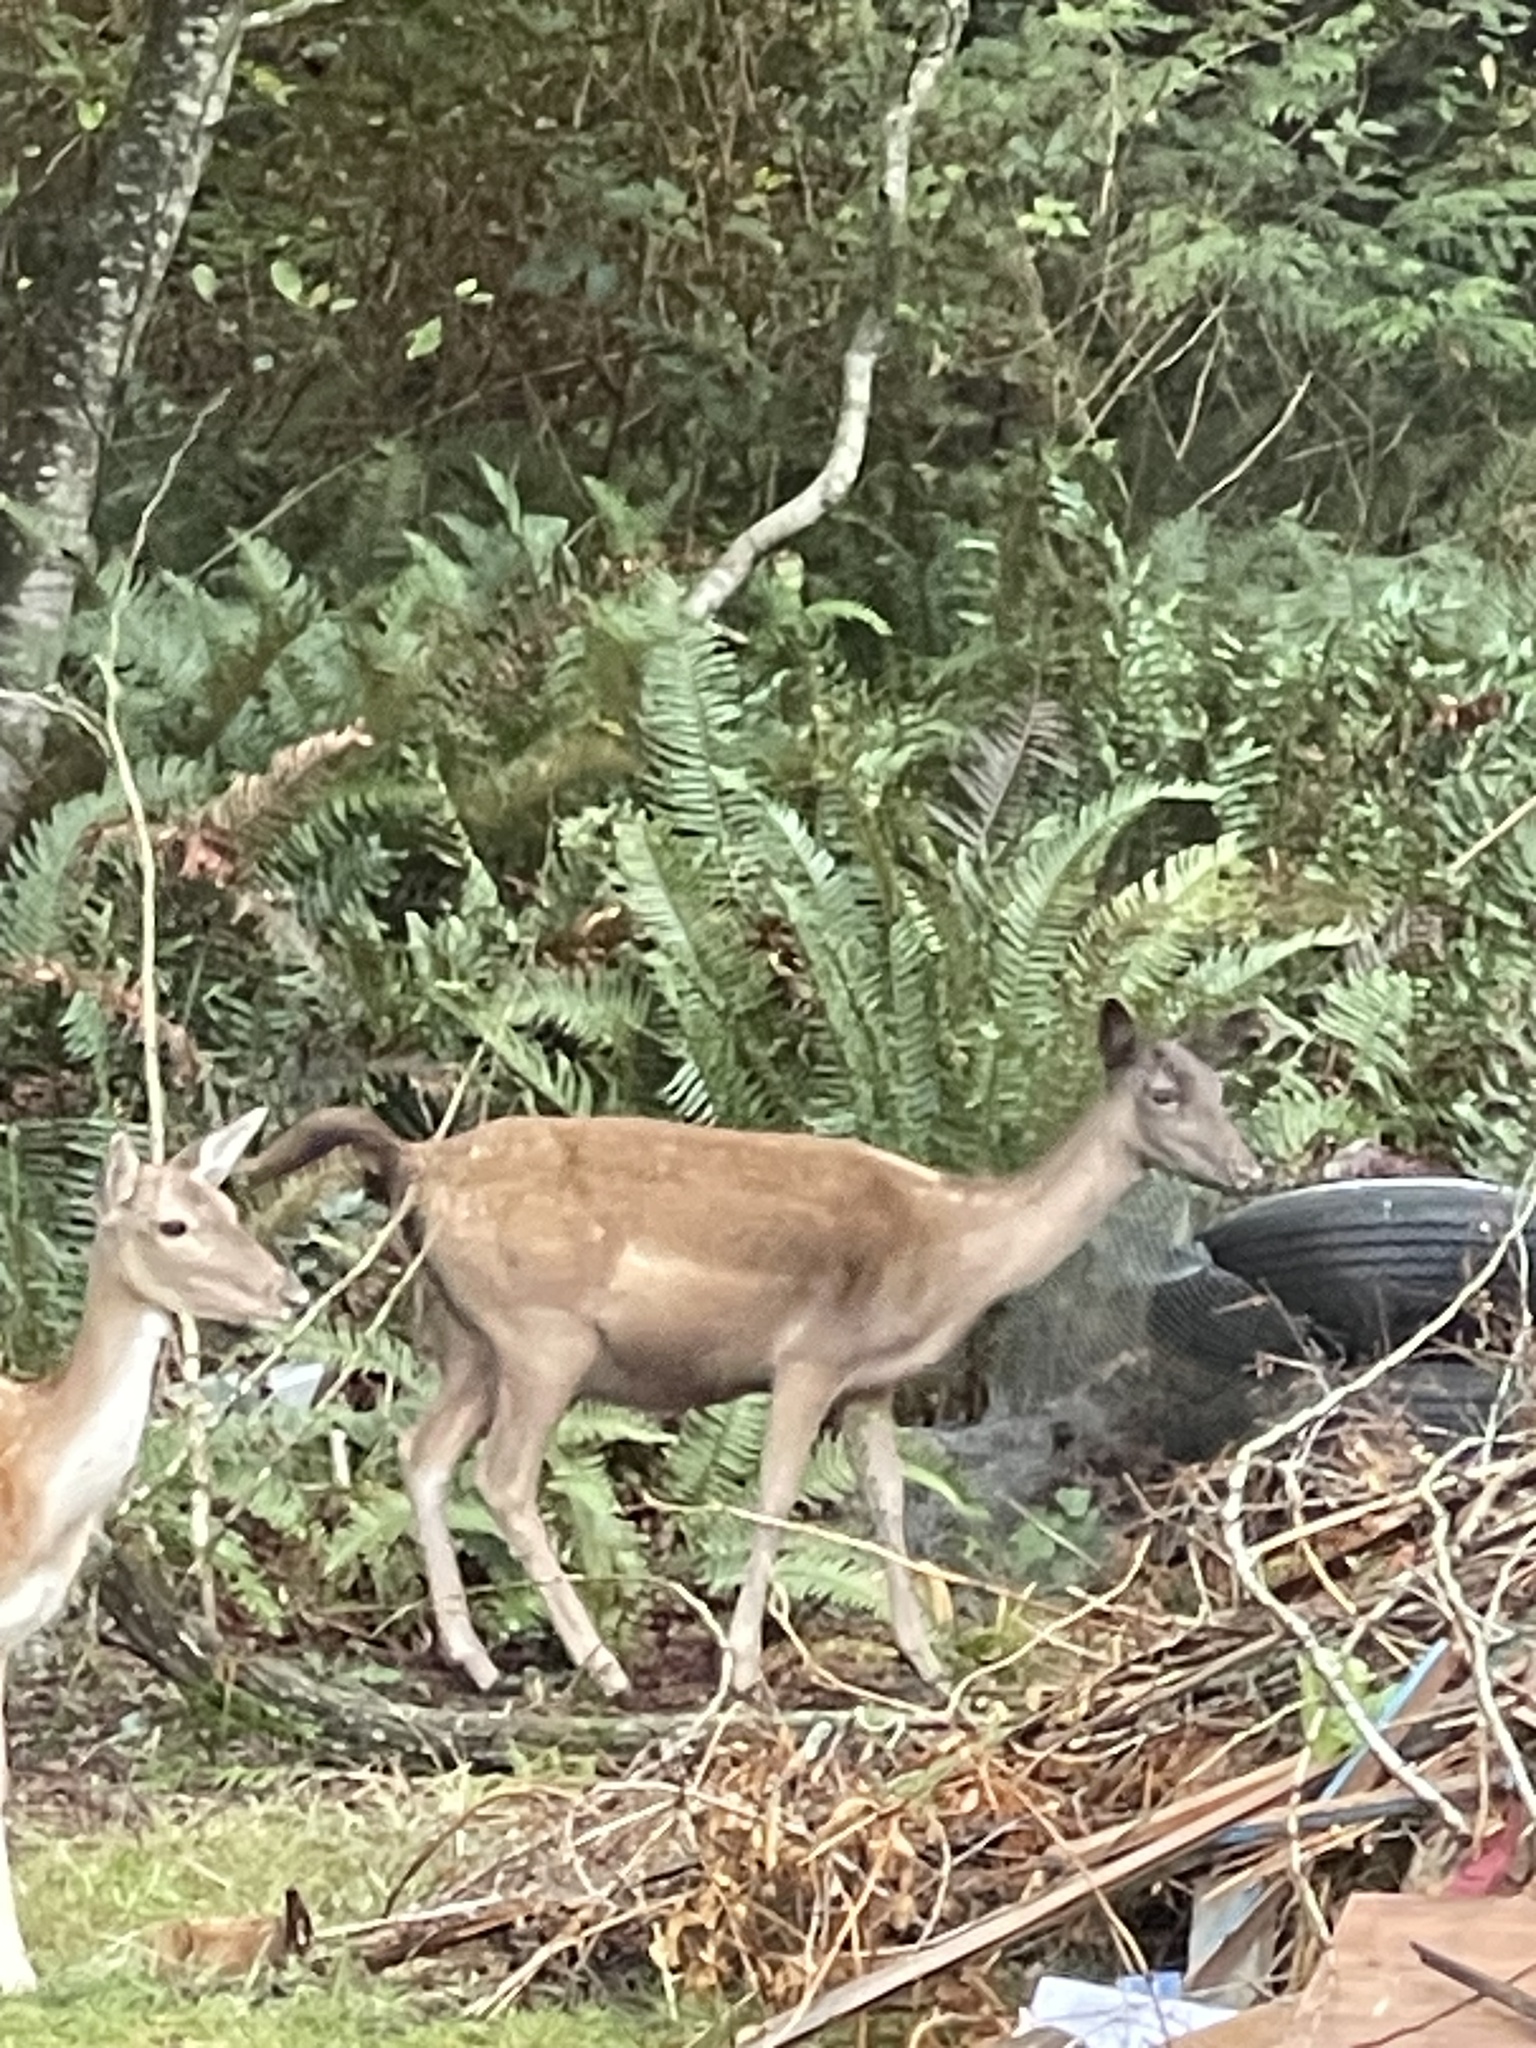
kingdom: Animalia
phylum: Chordata
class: Mammalia
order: Artiodactyla
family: Cervidae
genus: Dama
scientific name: Dama dama
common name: Fallow deer
